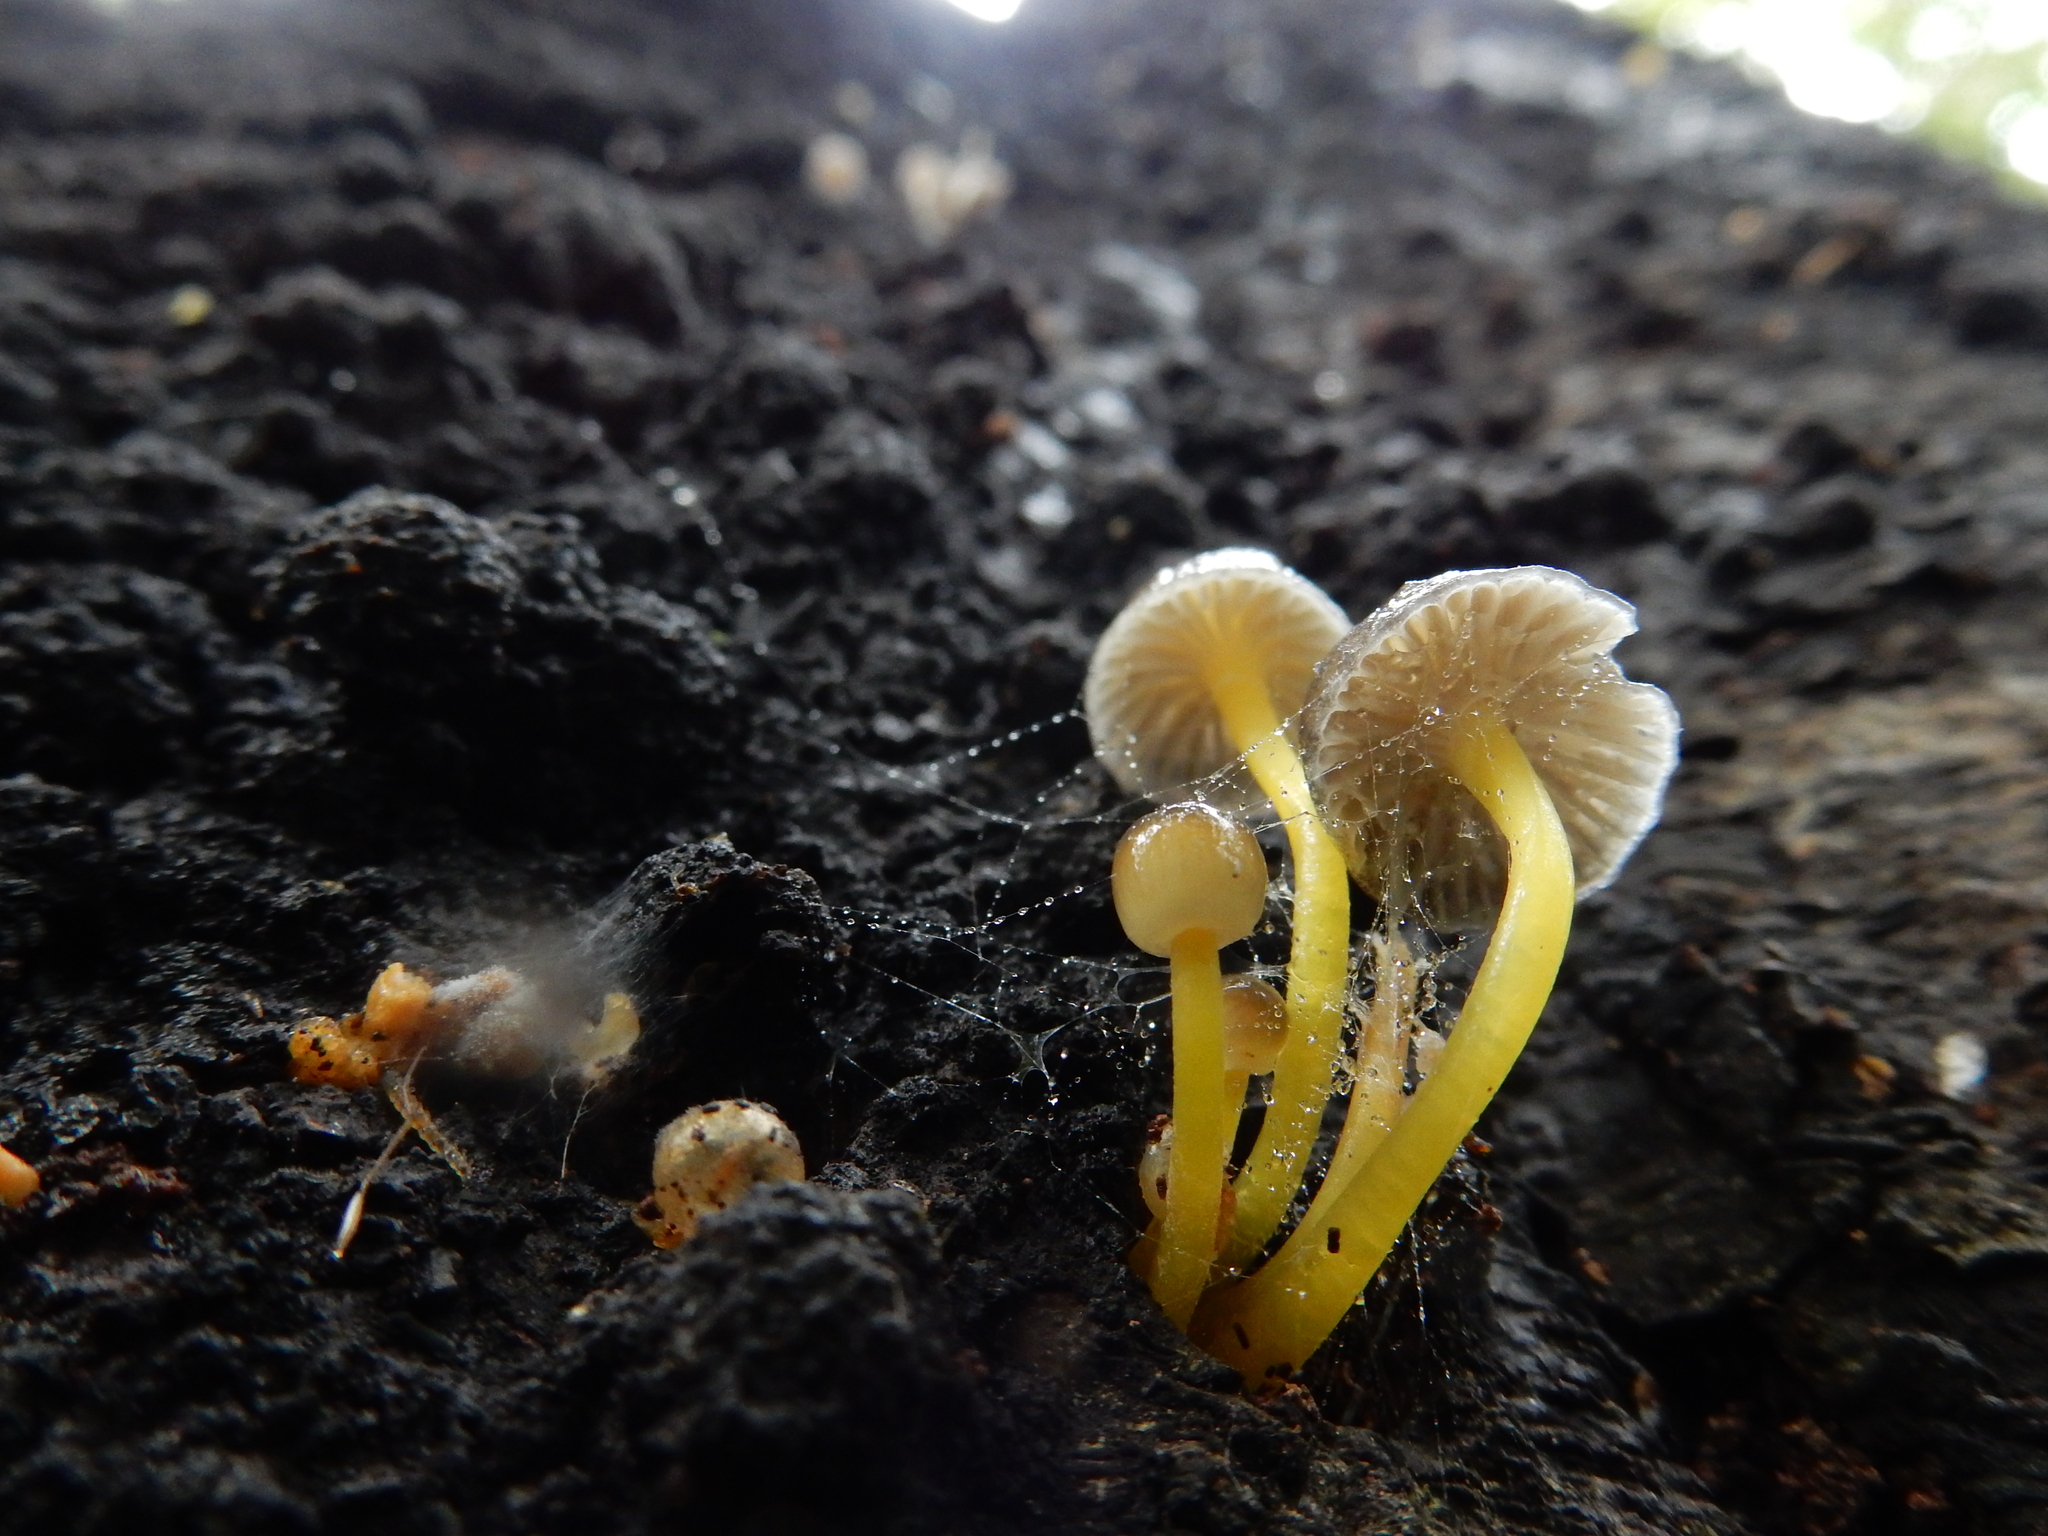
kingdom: Fungi
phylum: Basidiomycota
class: Agaricomycetes
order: Agaricales
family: Mycenaceae
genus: Mycena
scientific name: Mycena subviscosa
